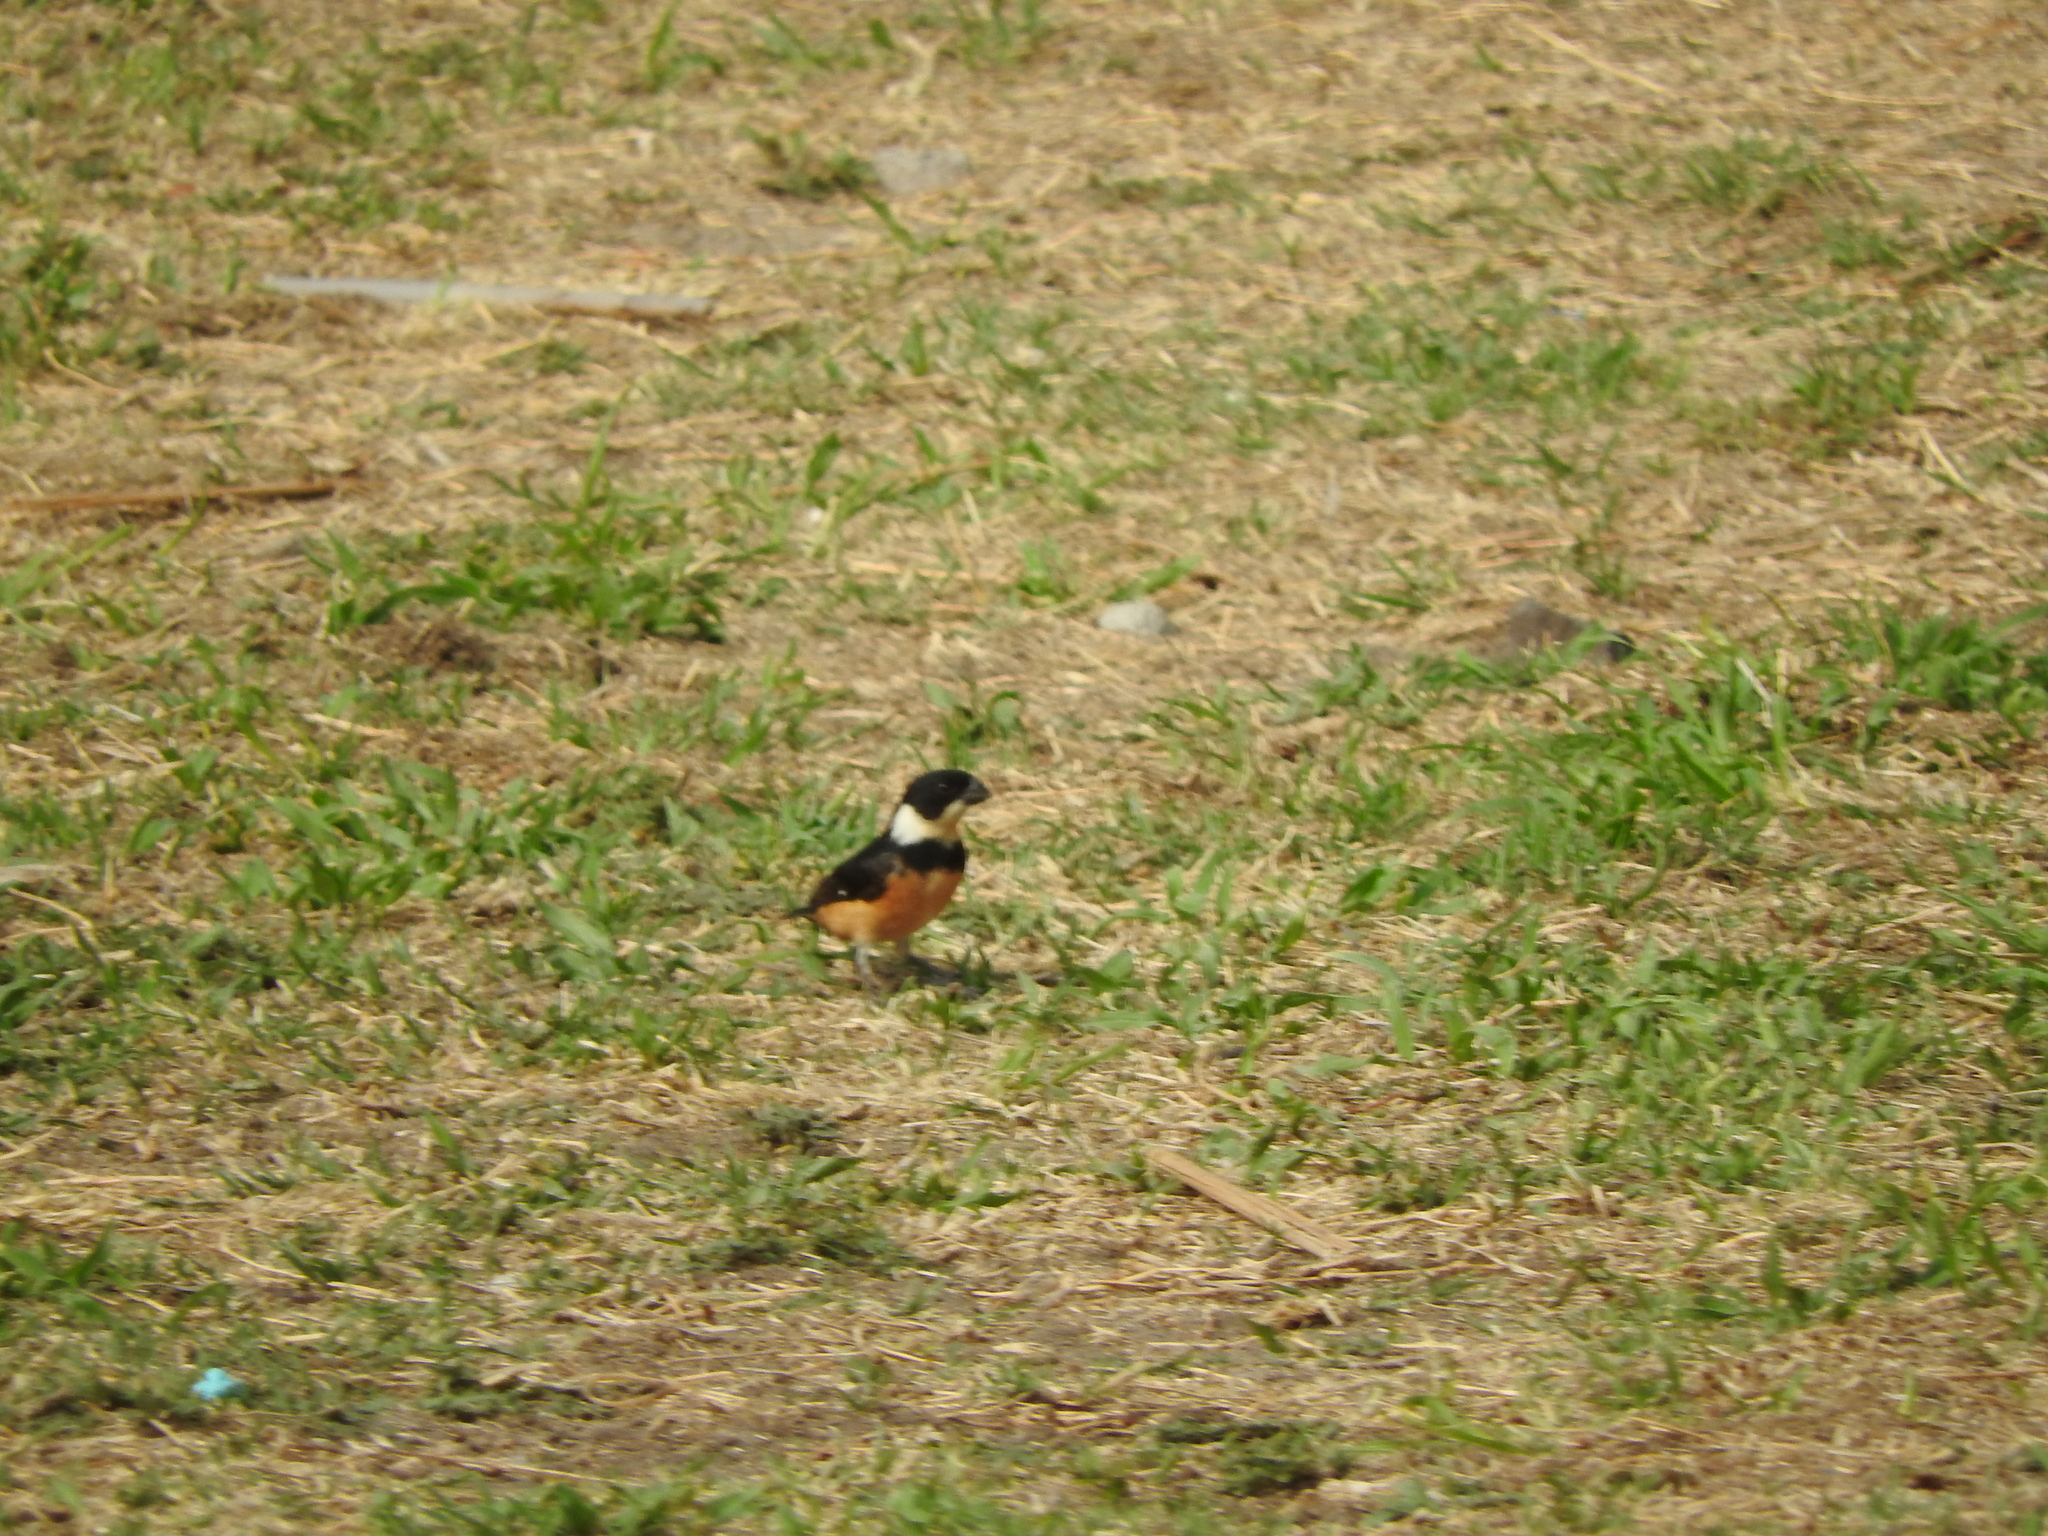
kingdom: Animalia
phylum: Chordata
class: Aves
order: Passeriformes
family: Thraupidae
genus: Sporophila
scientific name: Sporophila torqueola
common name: White-collared seedeater
